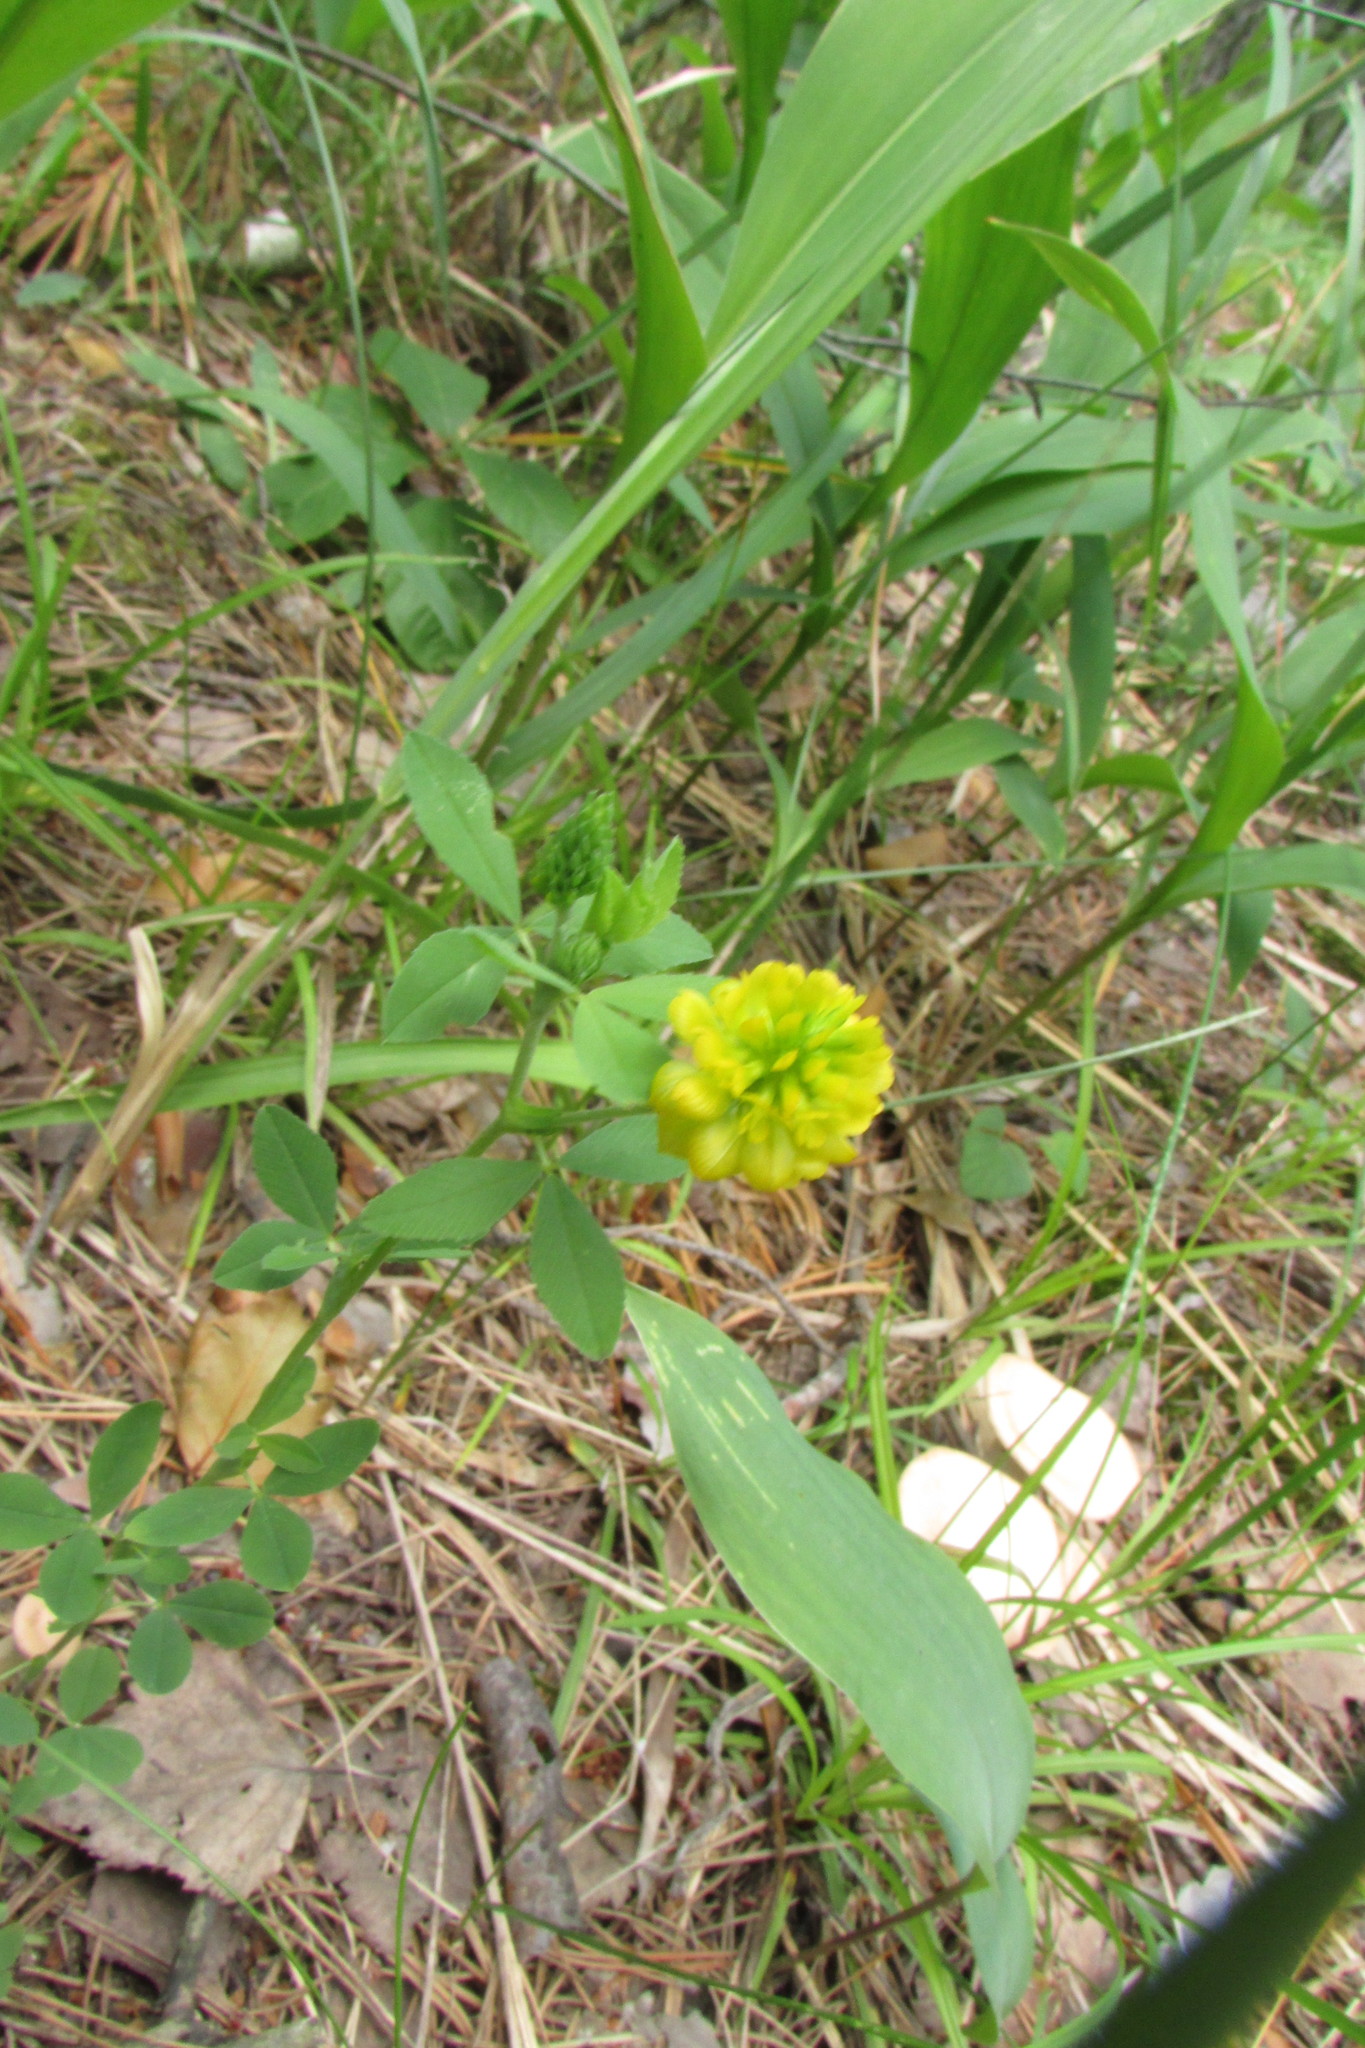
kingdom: Plantae
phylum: Tracheophyta
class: Magnoliopsida
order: Fabales
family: Fabaceae
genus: Trifolium
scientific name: Trifolium aureum
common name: Golden clover
